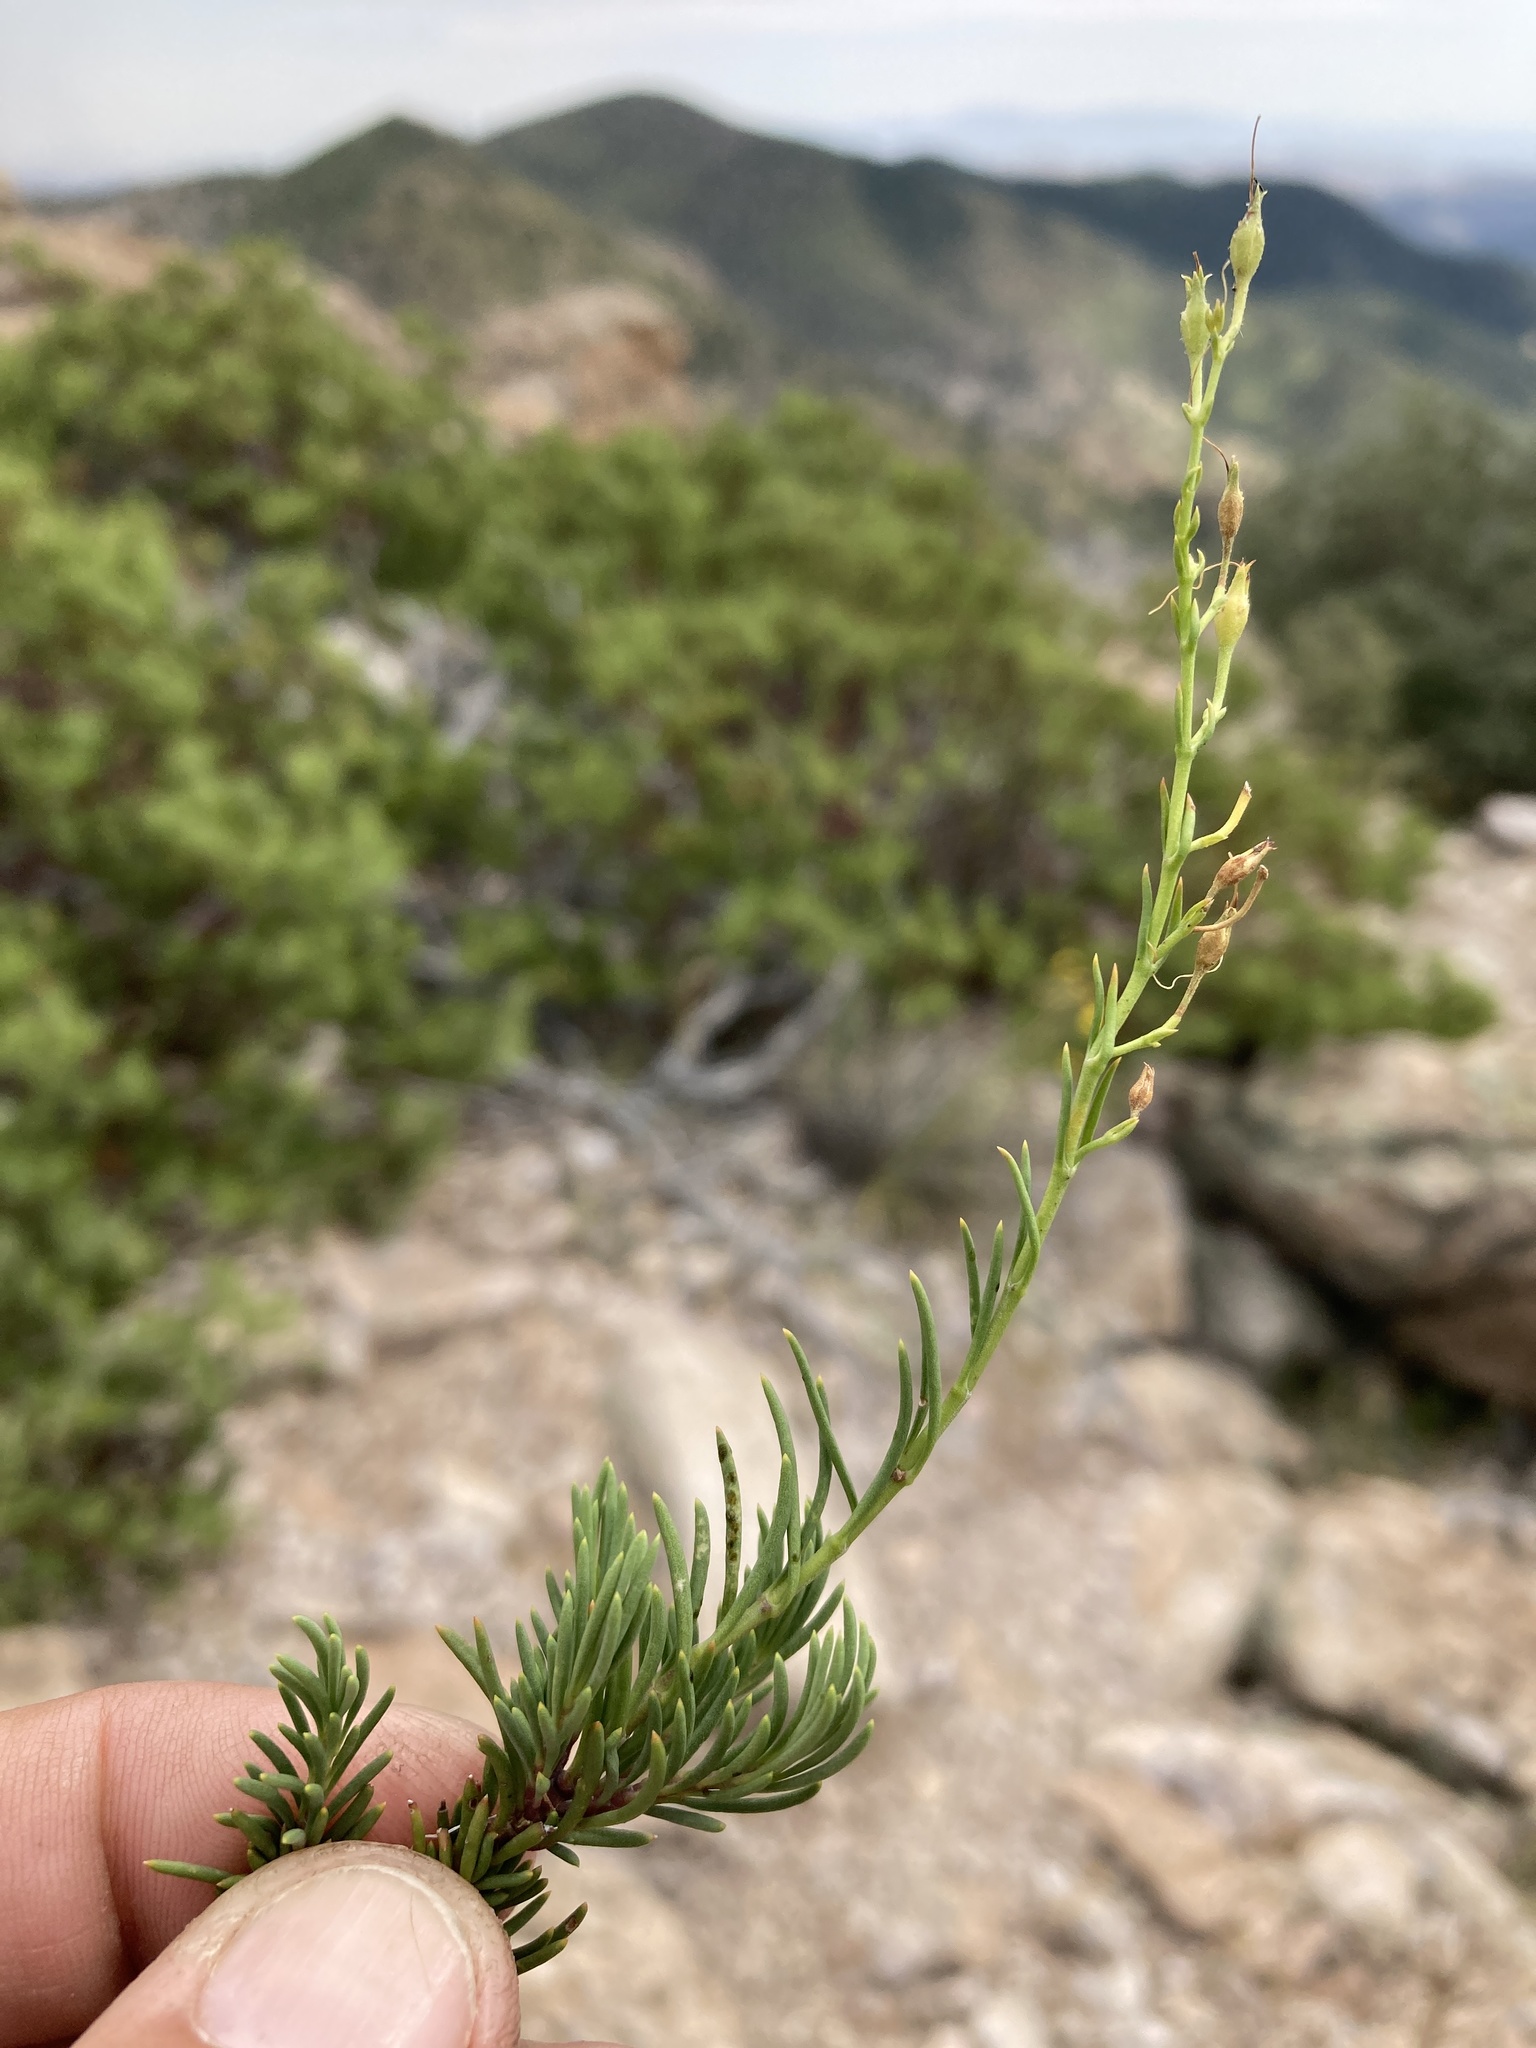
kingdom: Plantae
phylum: Tracheophyta
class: Magnoliopsida
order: Lamiales
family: Plantaginaceae
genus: Penstemon
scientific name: Penstemon pinifolius
